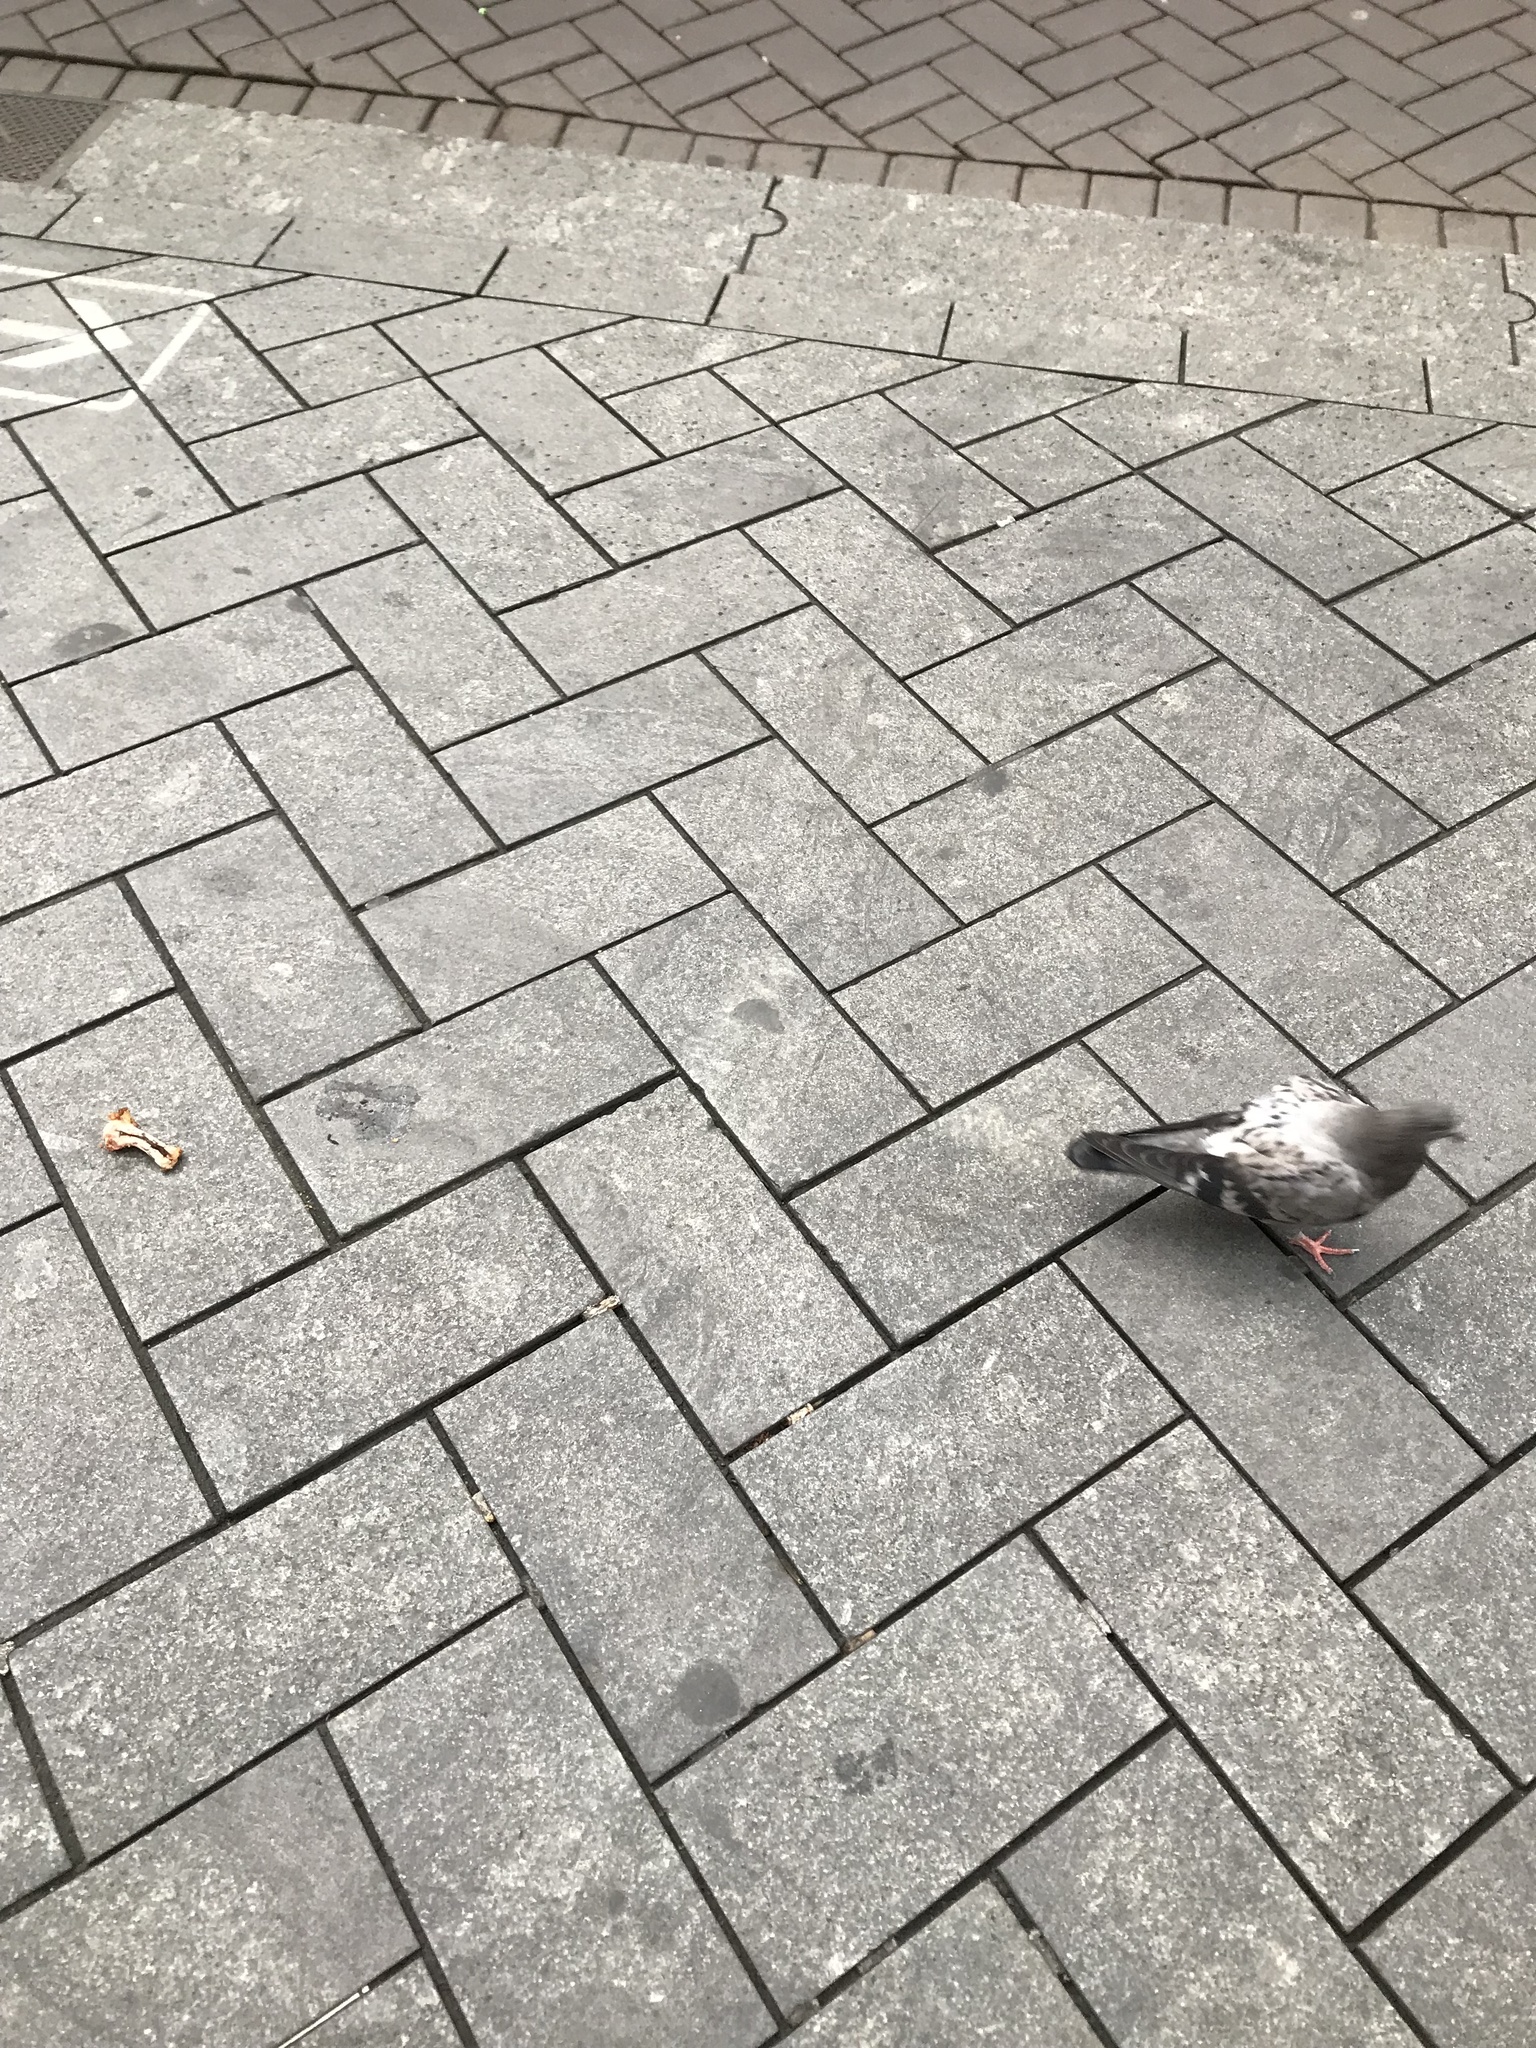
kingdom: Animalia
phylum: Chordata
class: Aves
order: Columbiformes
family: Columbidae
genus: Columba
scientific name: Columba livia
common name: Rock pigeon
